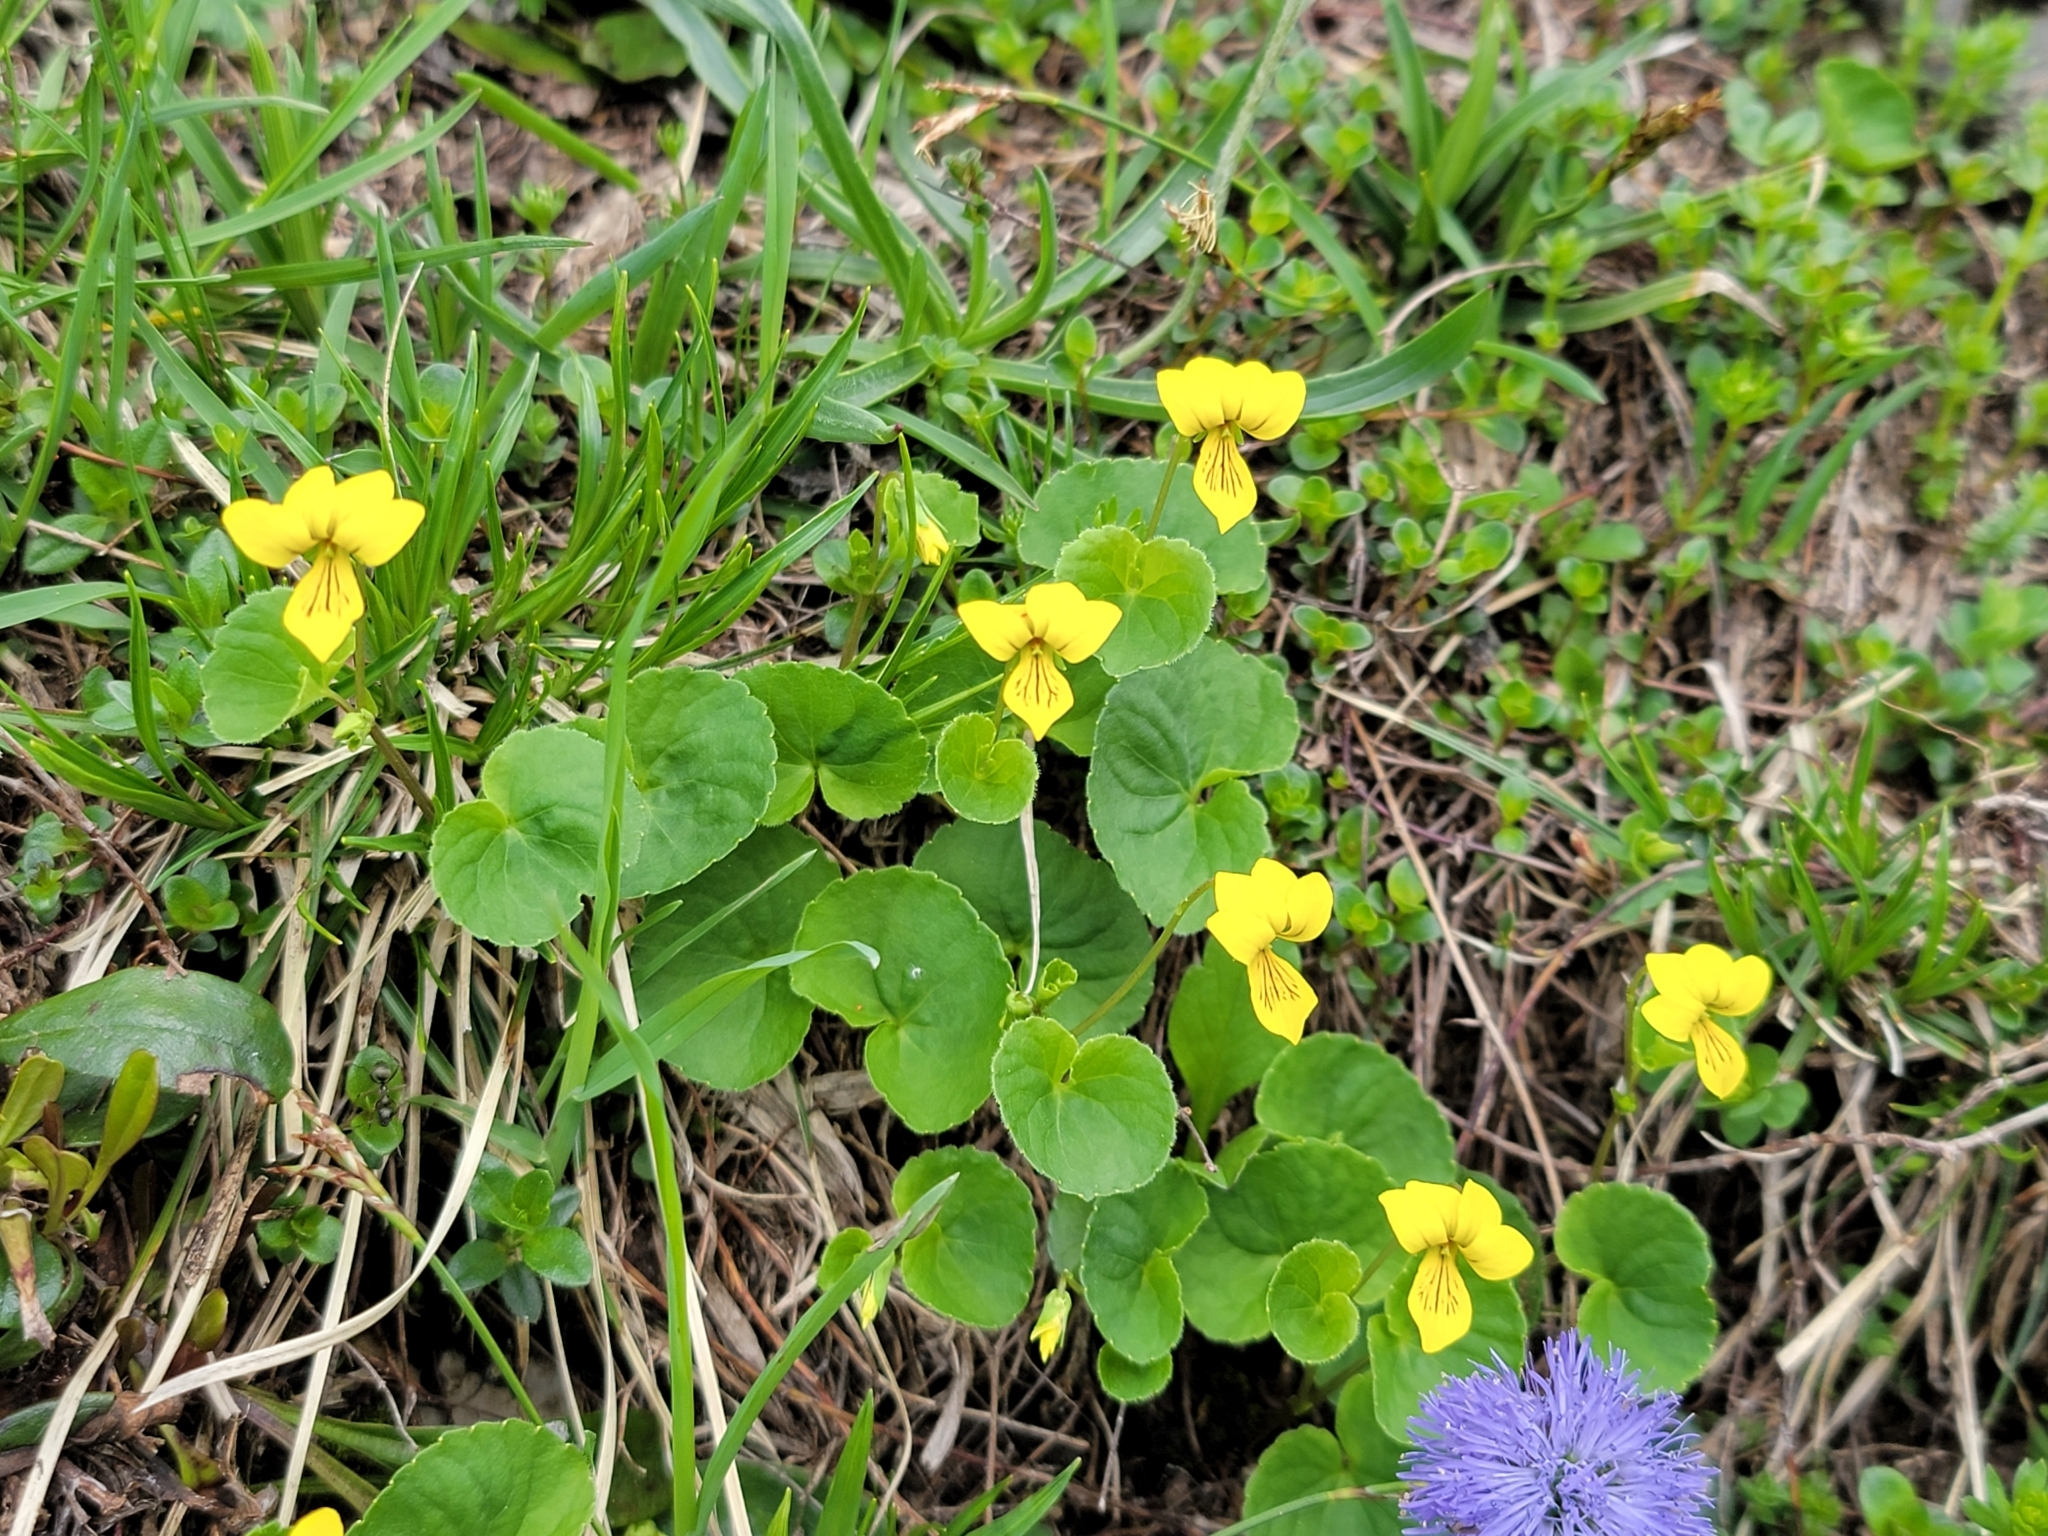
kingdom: Plantae
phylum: Tracheophyta
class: Magnoliopsida
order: Malpighiales
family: Violaceae
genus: Viola
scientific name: Viola biflora
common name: Alpine yellow violet
